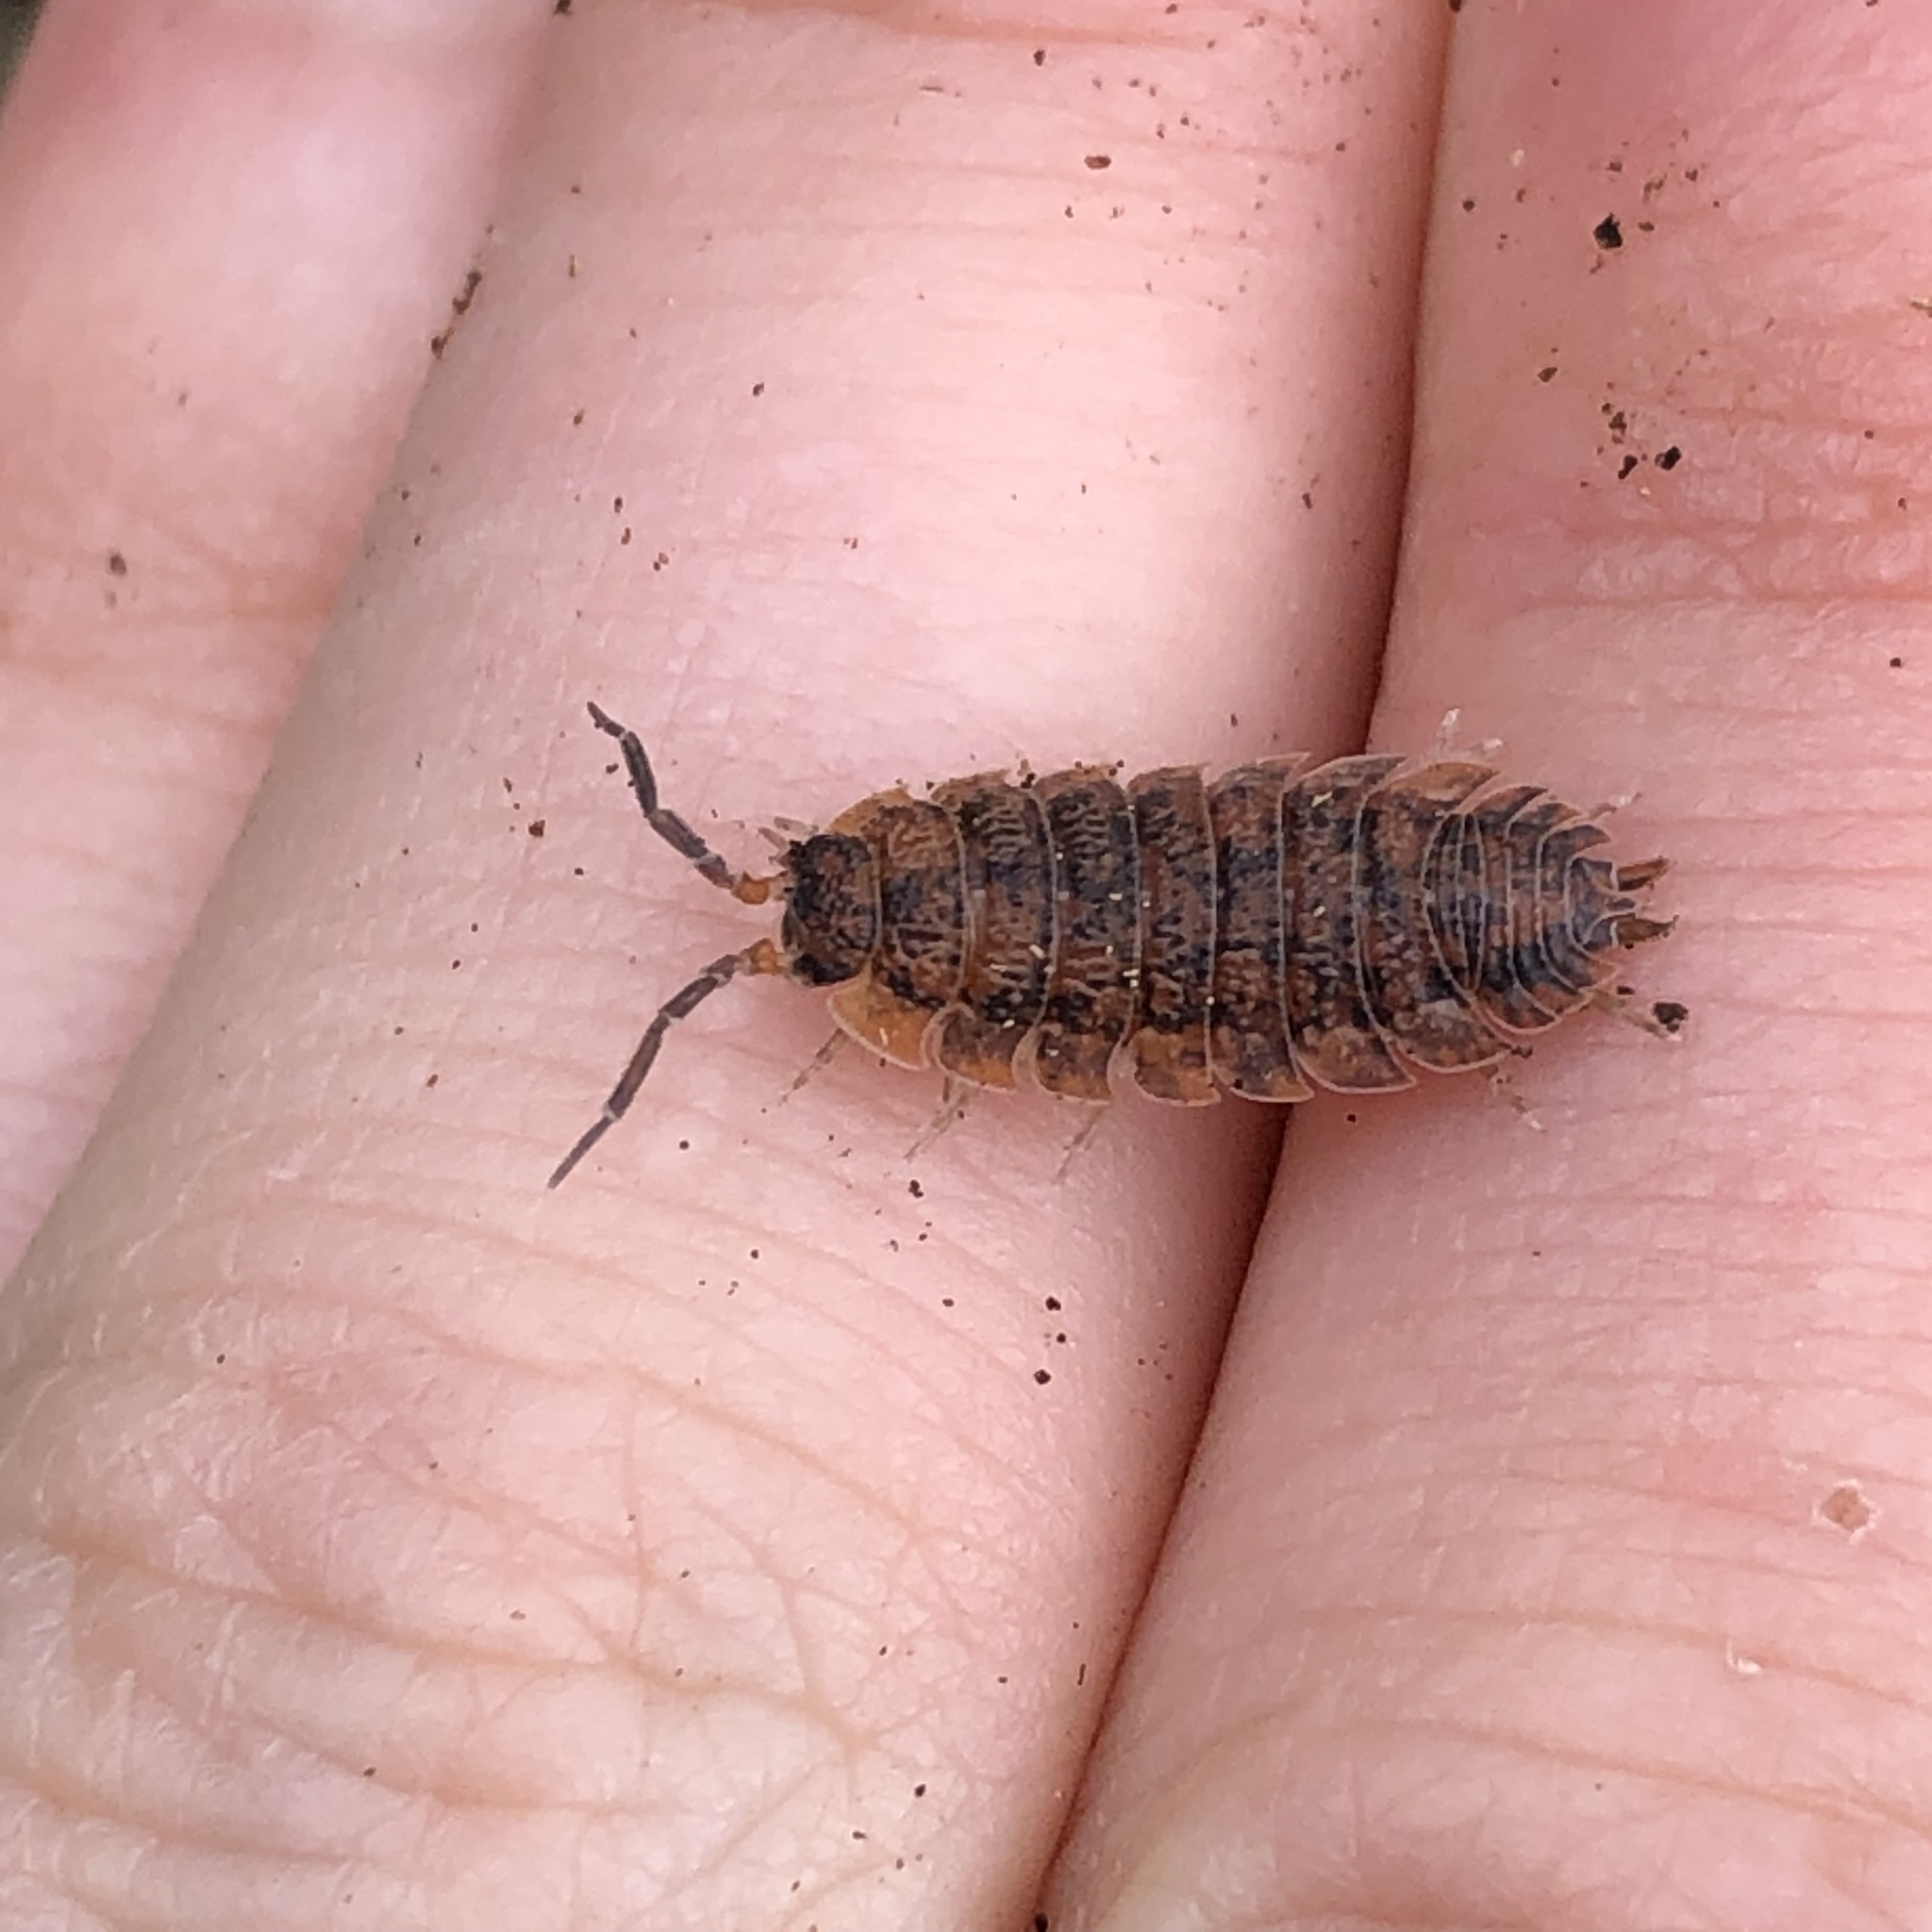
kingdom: Animalia
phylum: Arthropoda
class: Malacostraca
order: Isopoda
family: Porcellionidae
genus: Porcellio
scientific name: Porcellio scaber
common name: Common rough woodlouse
